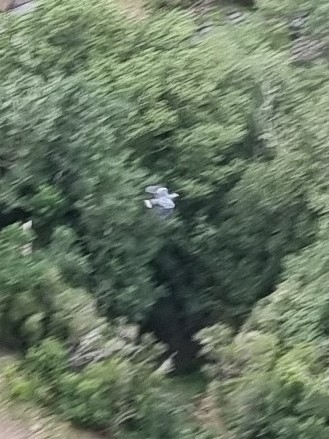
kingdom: Animalia
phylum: Chordata
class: Aves
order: Columbiformes
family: Columbidae
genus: Columba
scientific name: Columba trocaz
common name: Trocaz pigeon
